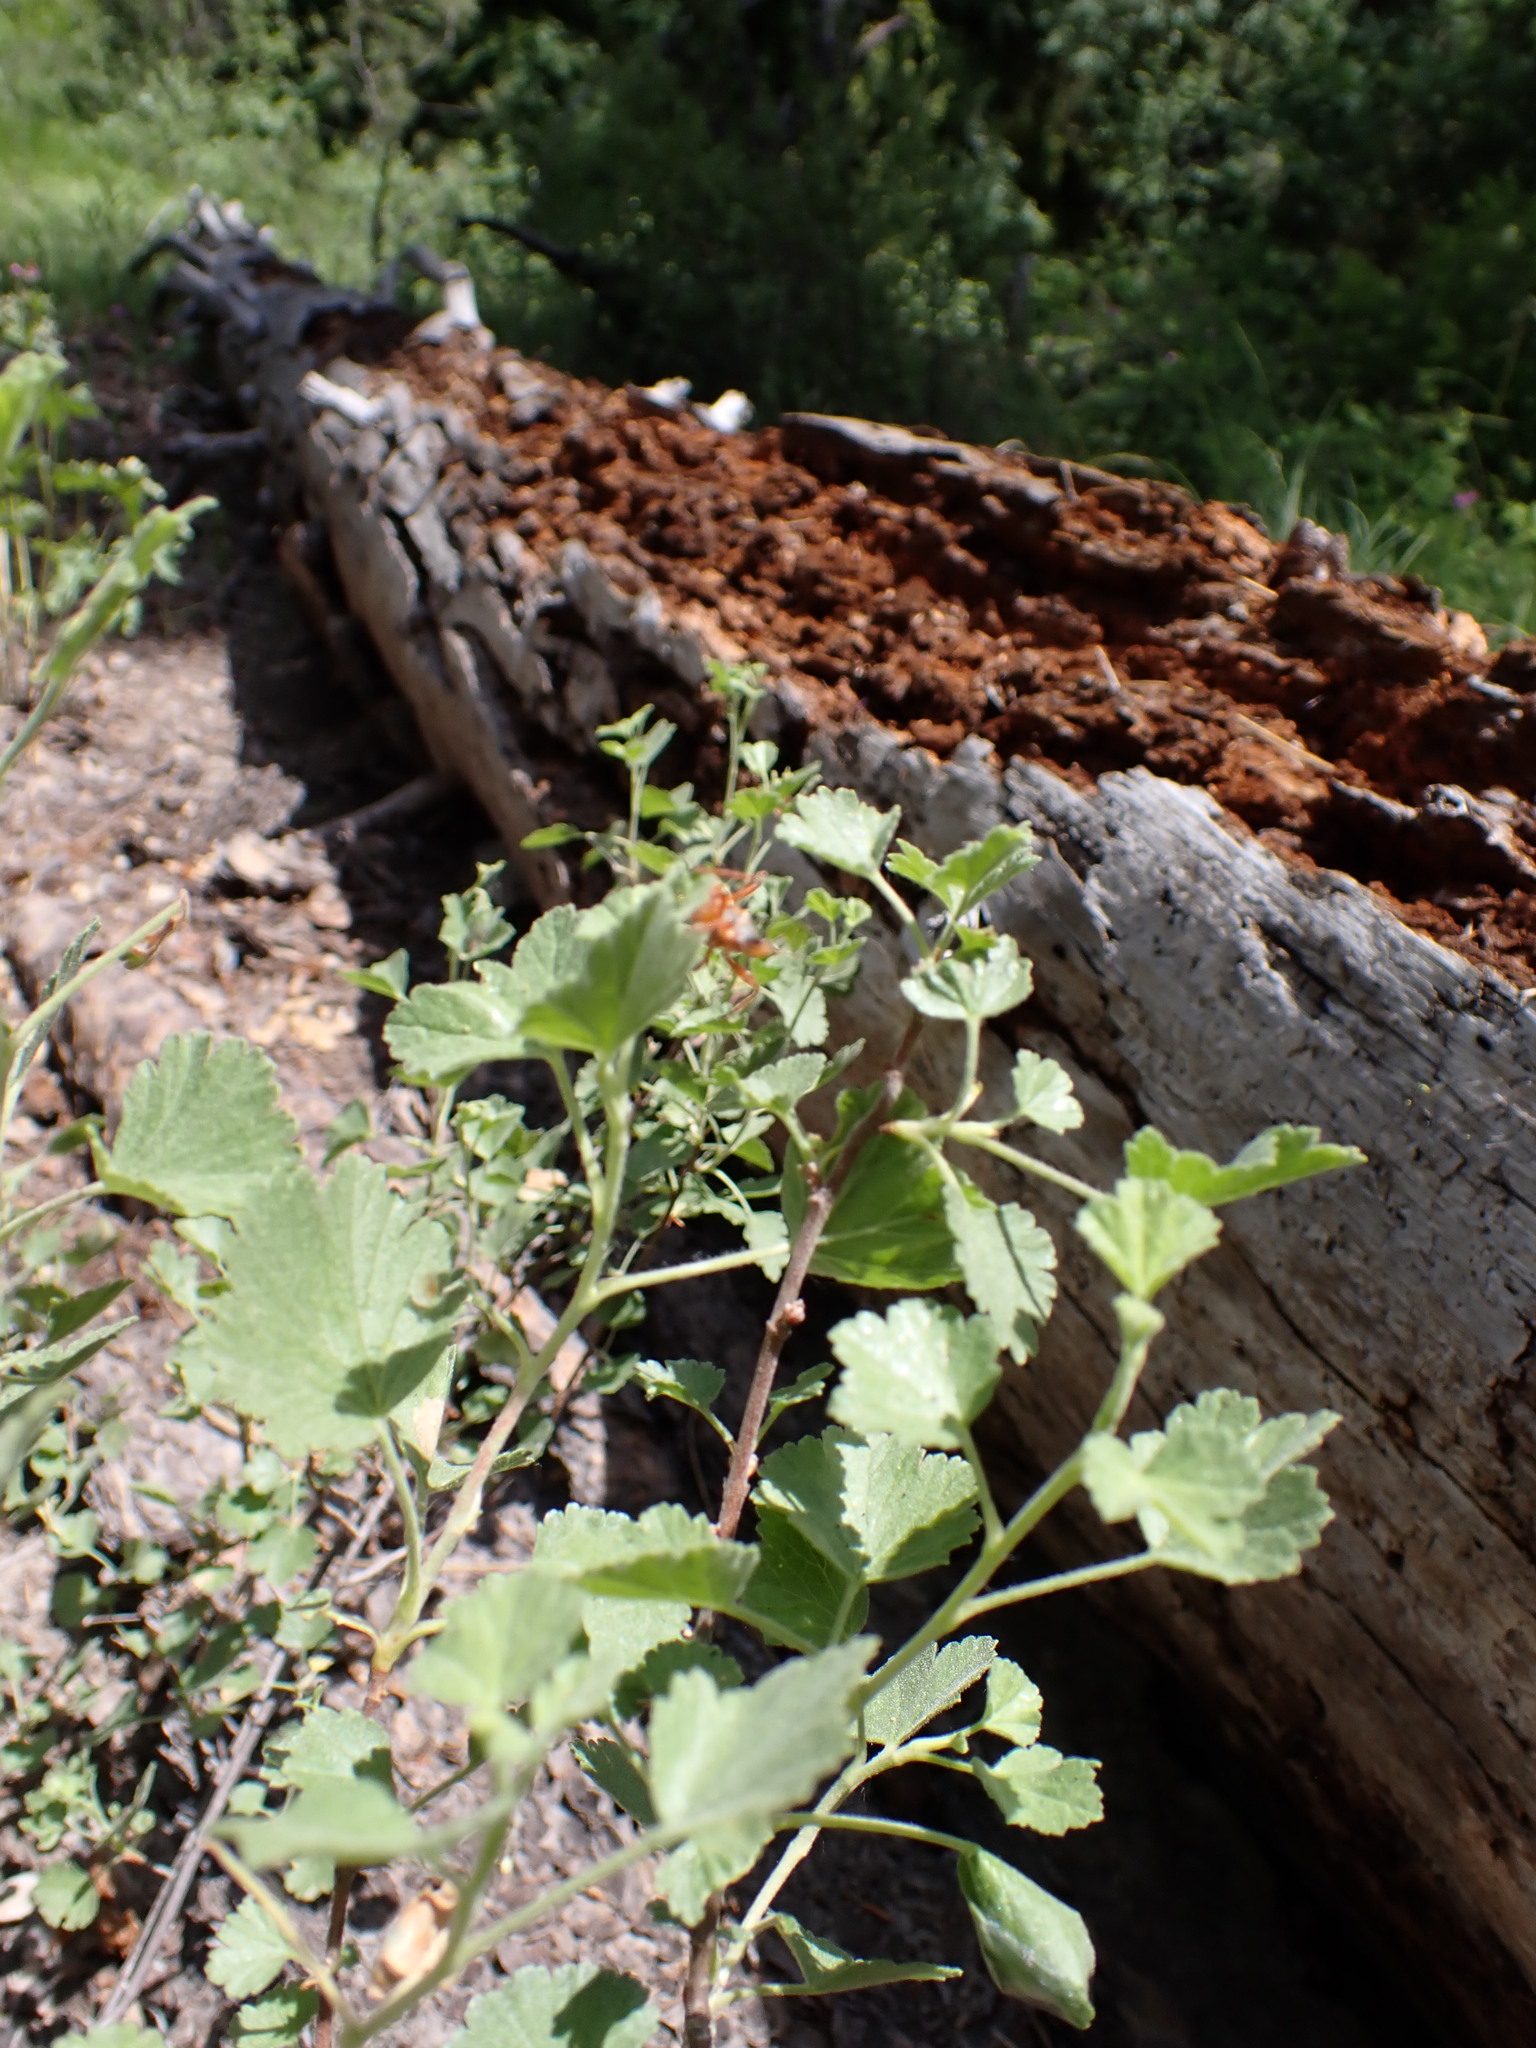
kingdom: Plantae
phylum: Tracheophyta
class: Magnoliopsida
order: Saxifragales
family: Grossulariaceae
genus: Ribes
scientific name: Ribes cereum
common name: Wax currant
